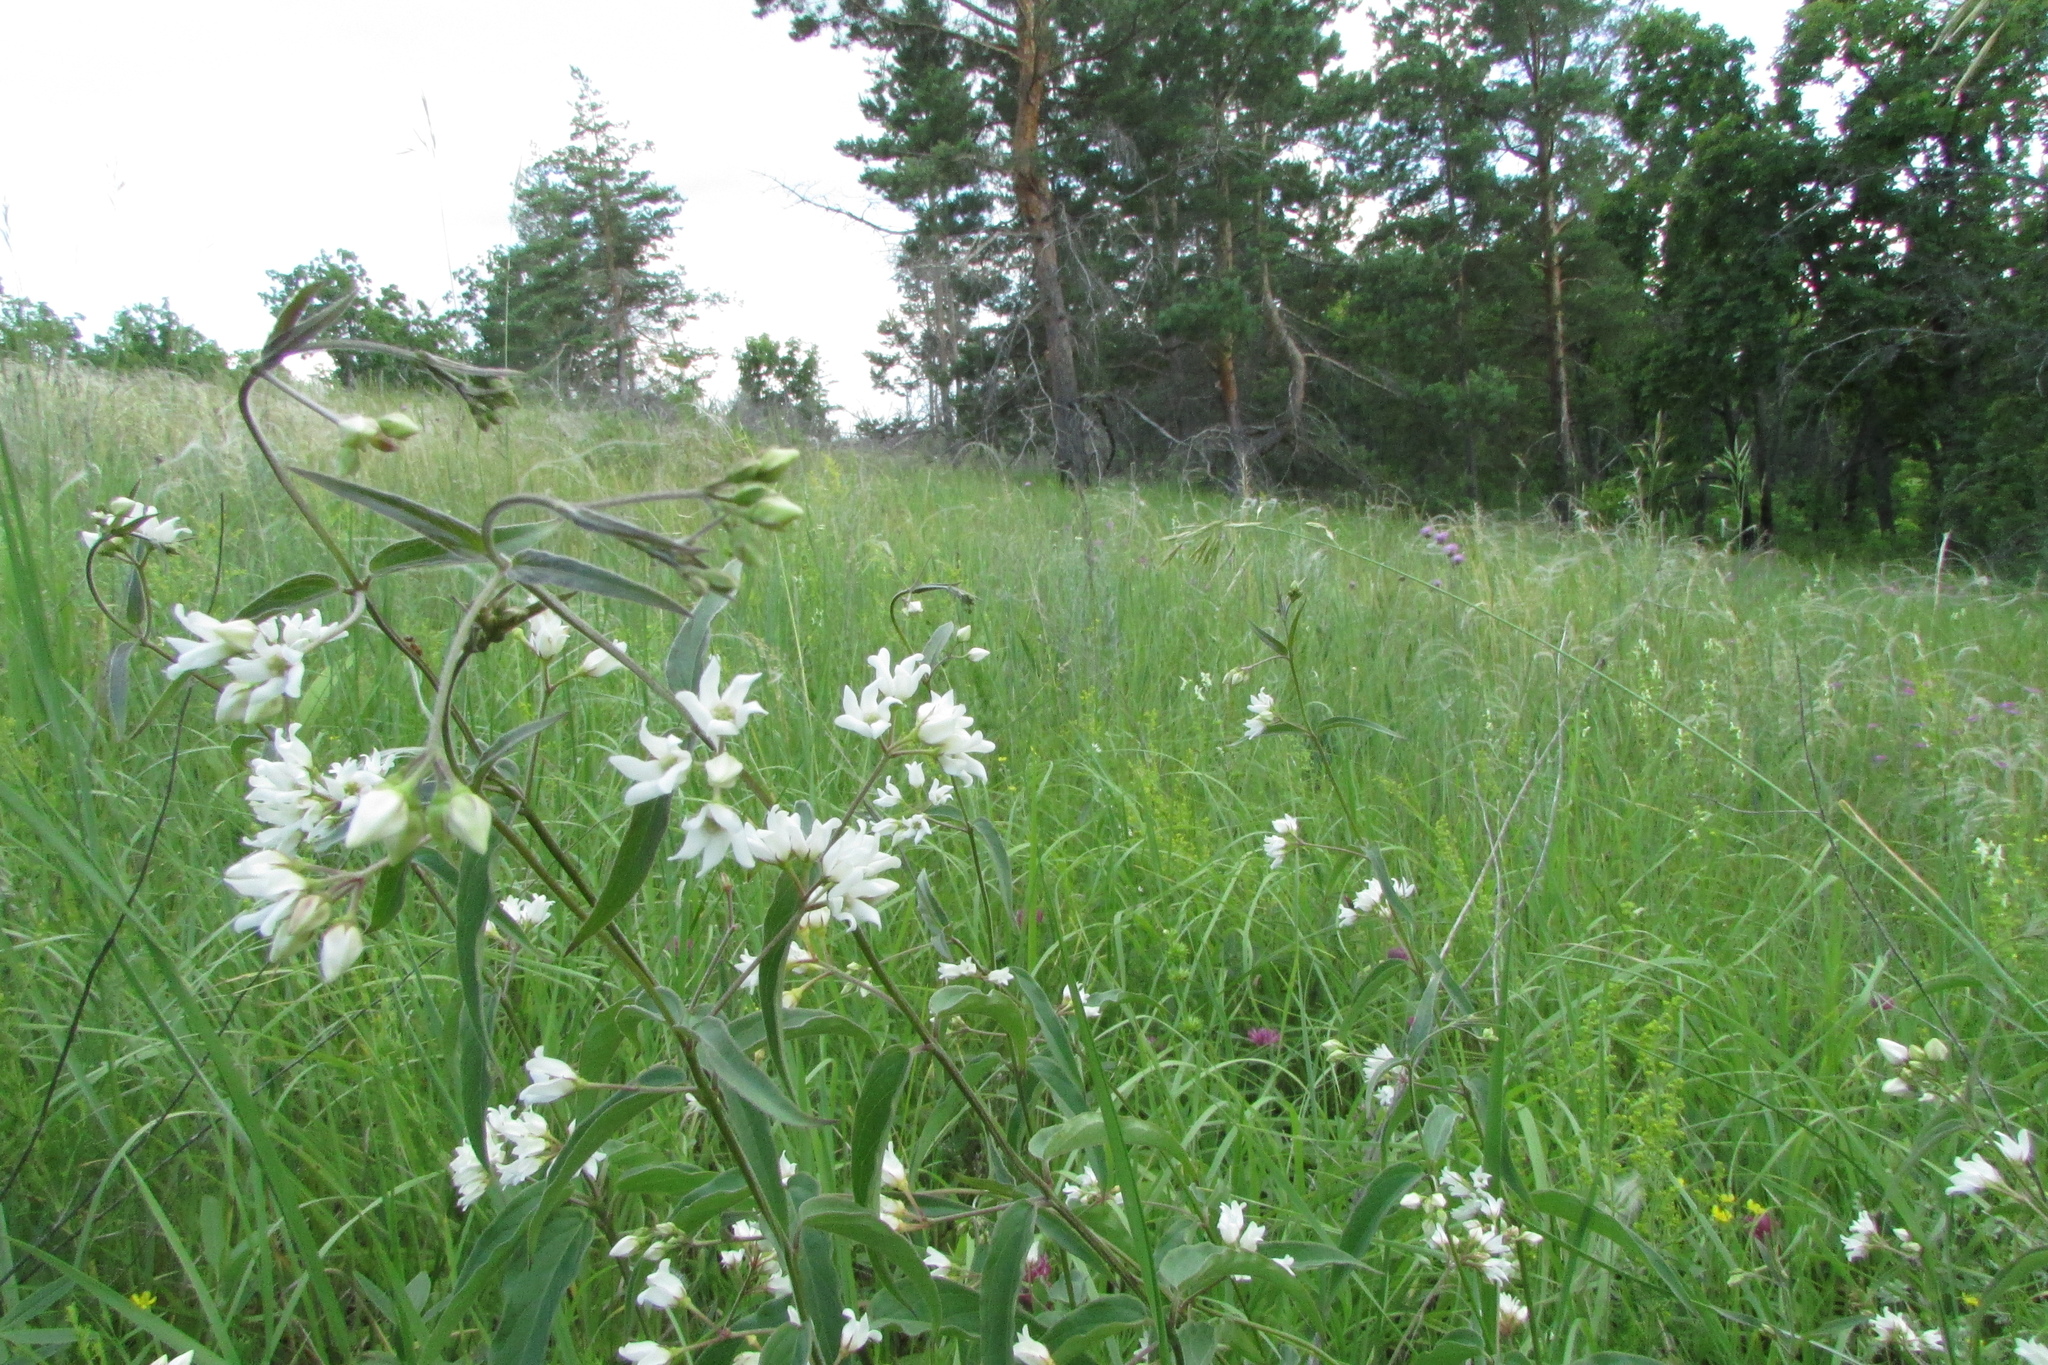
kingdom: Plantae
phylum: Tracheophyta
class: Magnoliopsida
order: Gentianales
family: Apocynaceae
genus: Vincetoxicum
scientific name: Vincetoxicum hirundinaria
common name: White swallowwort
